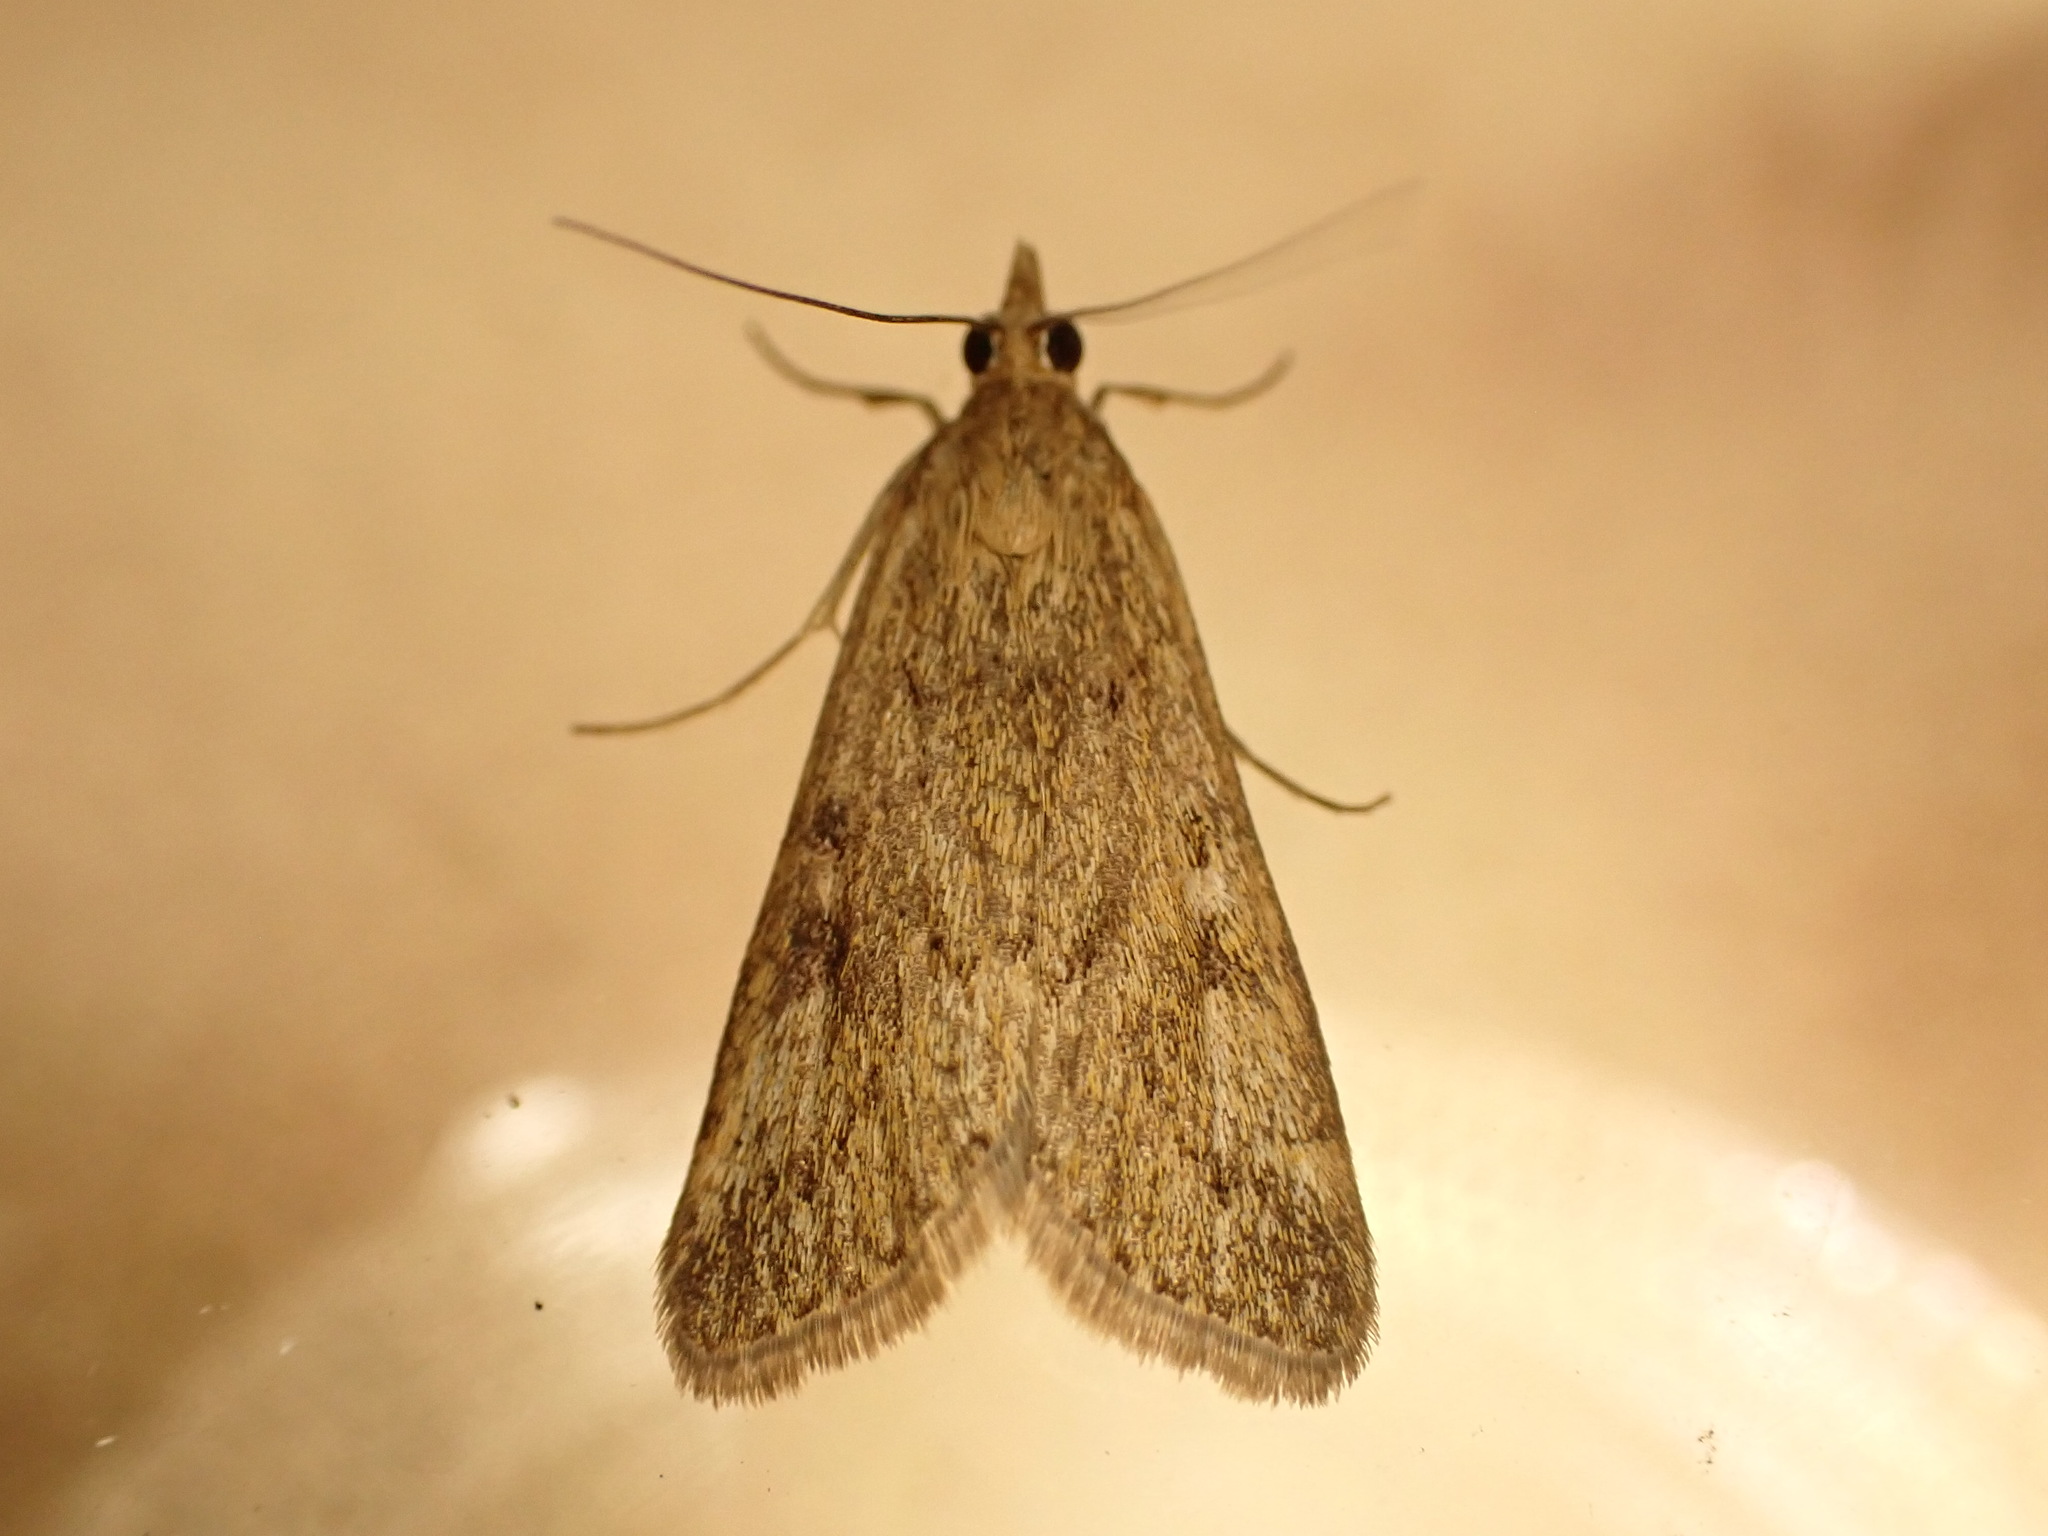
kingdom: Animalia
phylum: Arthropoda
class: Insecta
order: Lepidoptera
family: Crambidae
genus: Achyra
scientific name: Achyra affinitalis
